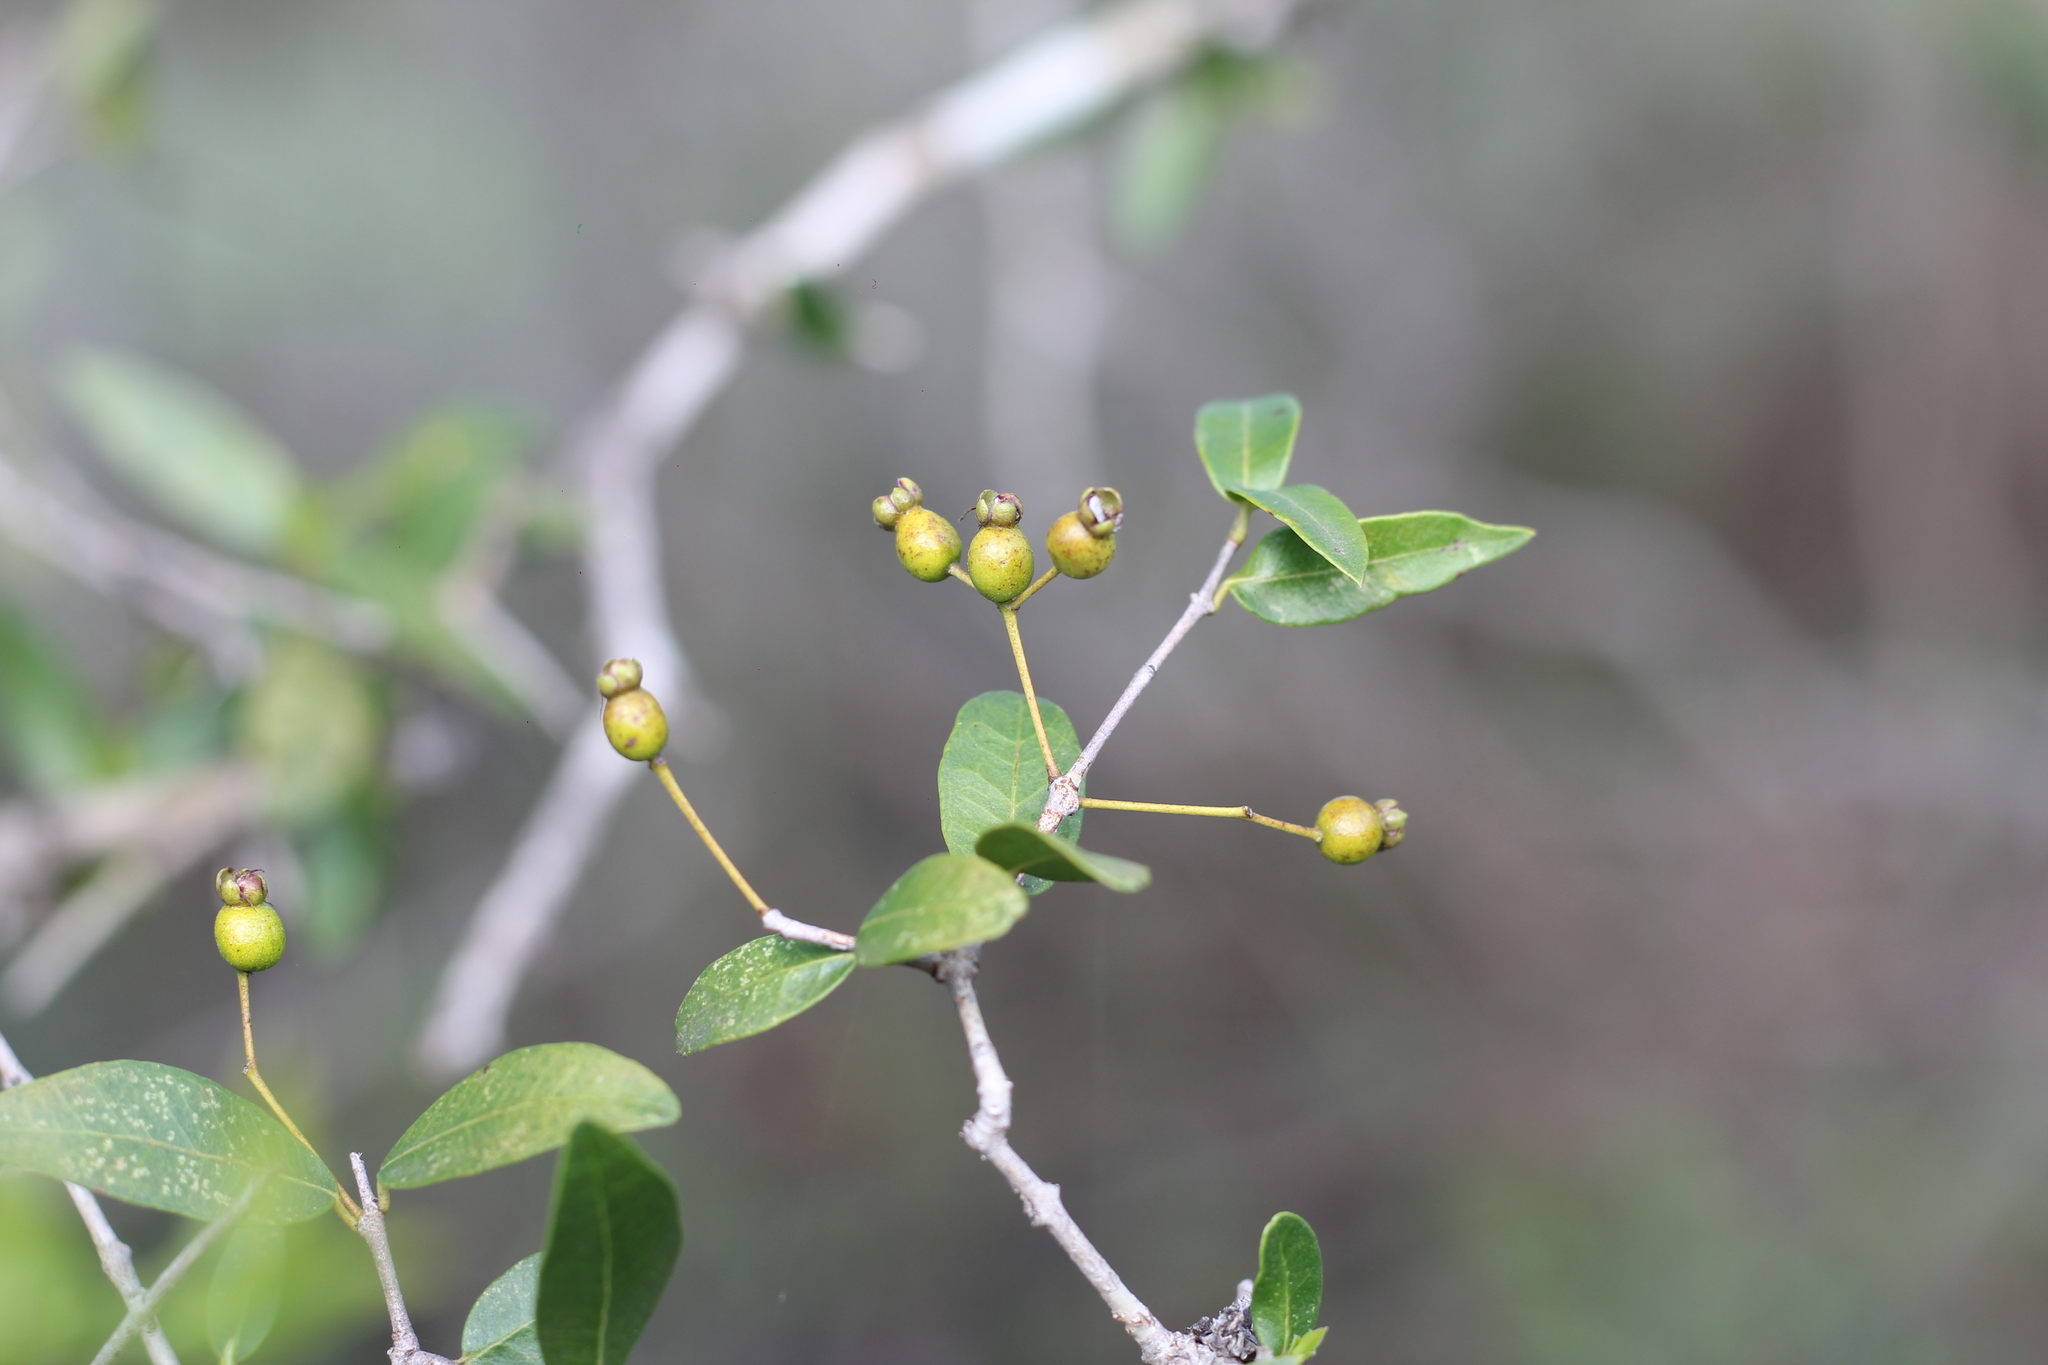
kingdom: Plantae
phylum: Tracheophyta
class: Magnoliopsida
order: Myrtales
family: Myrtaceae
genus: Myrcianthes
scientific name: Myrcianthes cisplatensis
